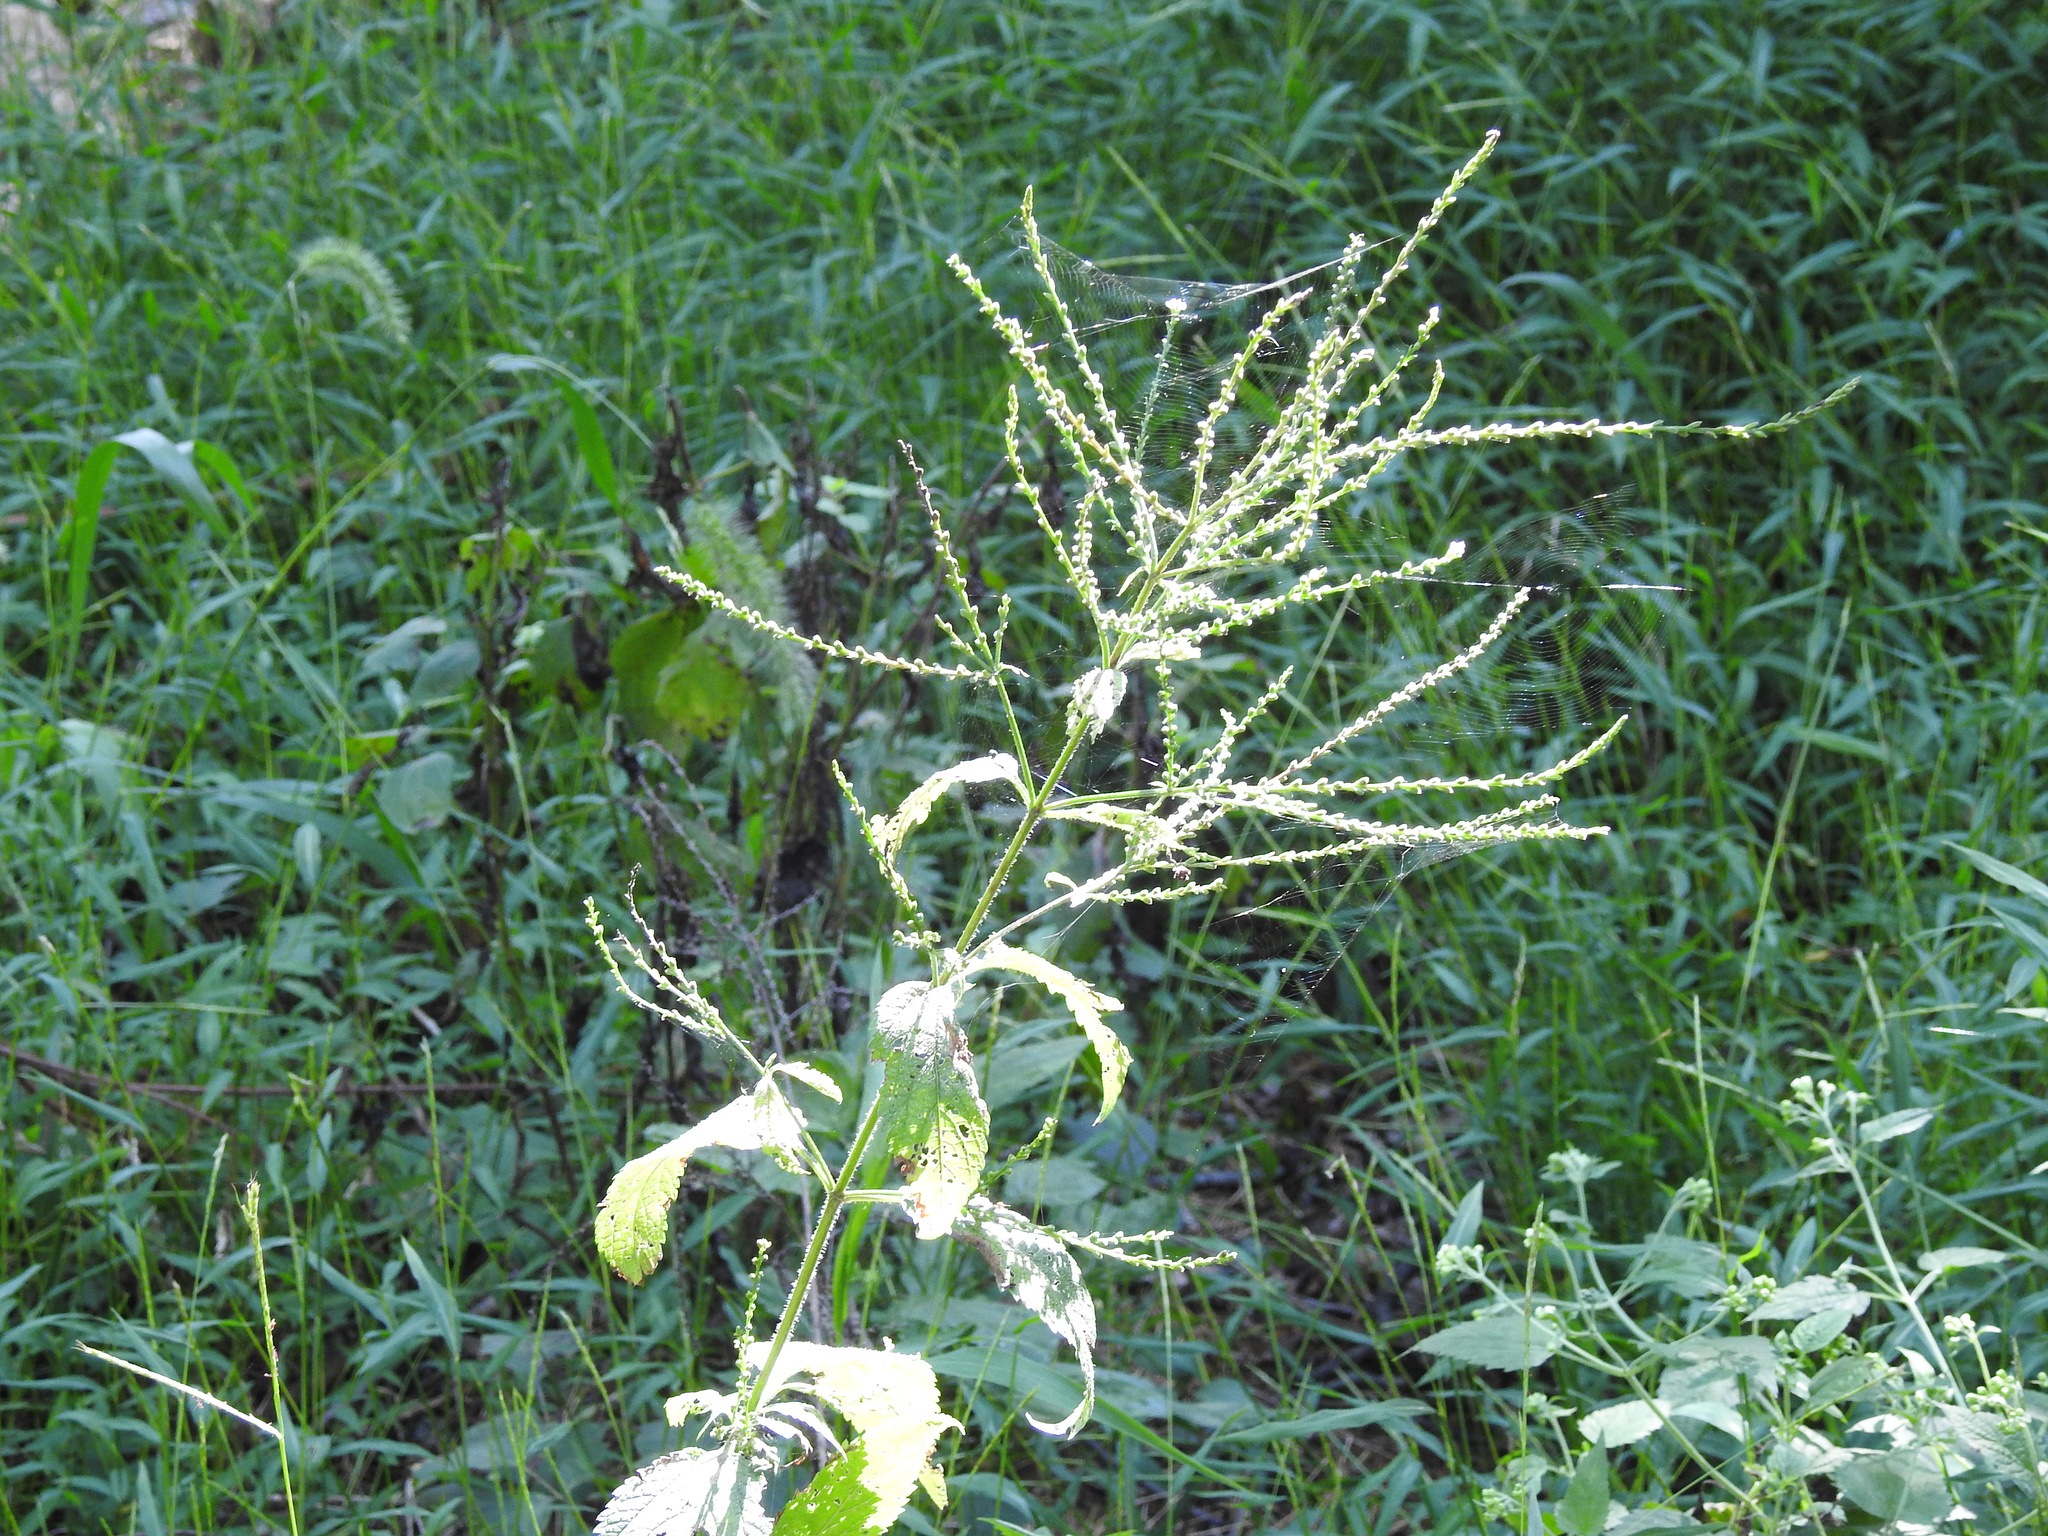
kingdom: Plantae
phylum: Tracheophyta
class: Magnoliopsida
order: Lamiales
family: Verbenaceae
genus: Verbena
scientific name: Verbena urticifolia
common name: Nettle-leaved vervain
